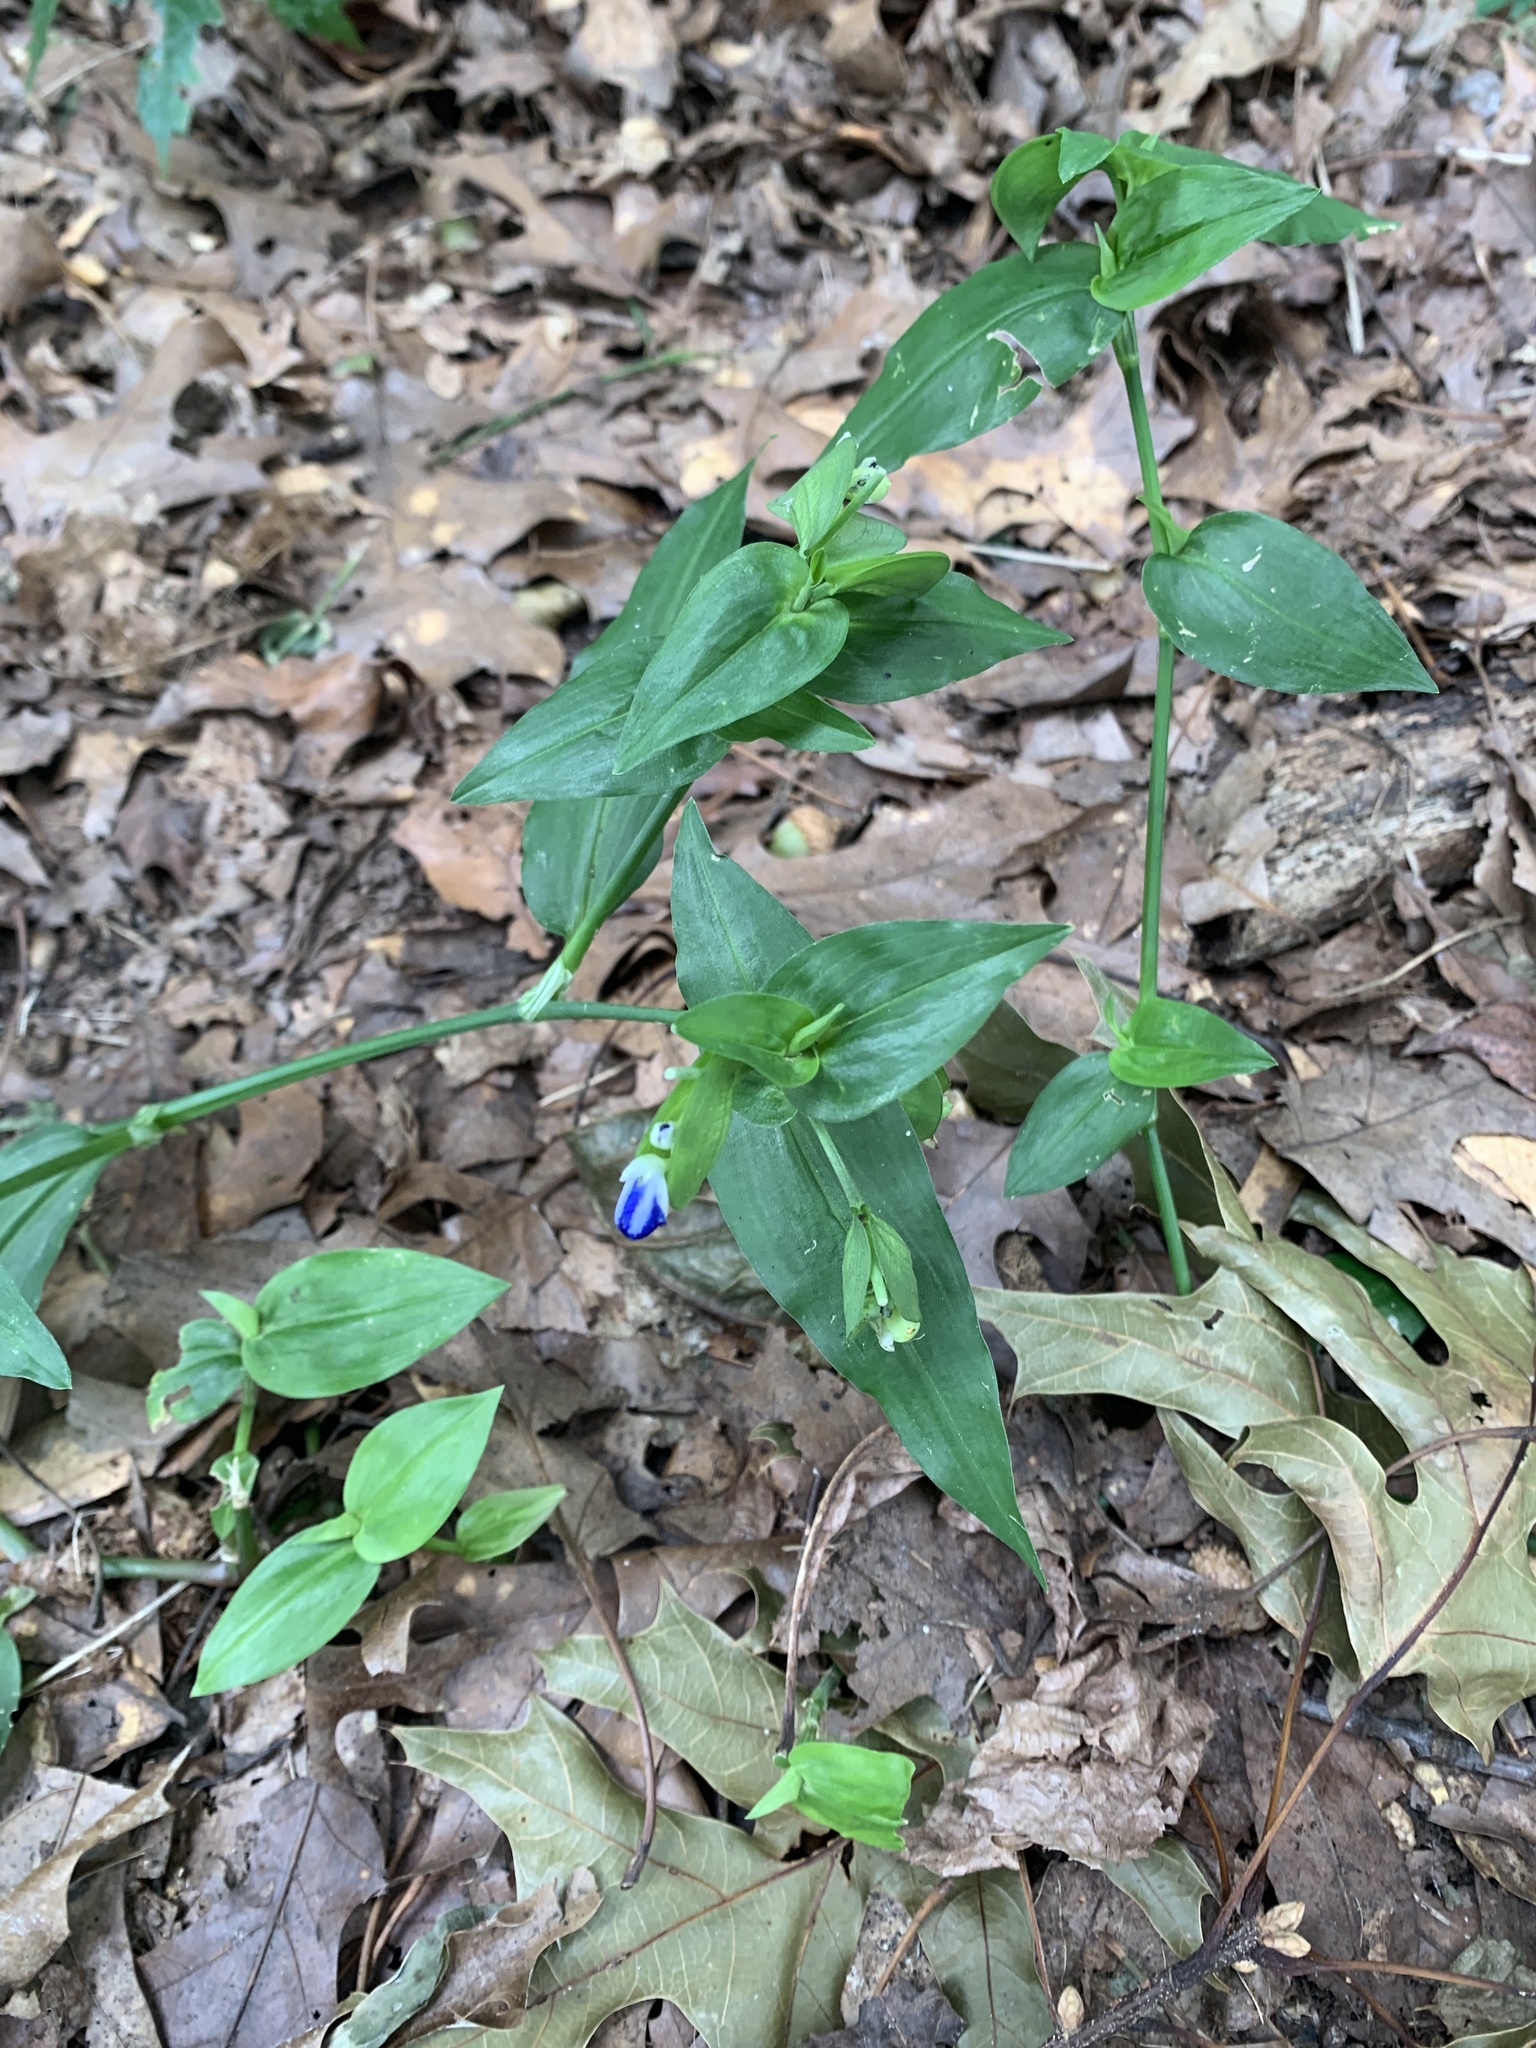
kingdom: Plantae
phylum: Tracheophyta
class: Liliopsida
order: Commelinales
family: Commelinaceae
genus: Commelina
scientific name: Commelina communis
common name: Asiatic dayflower
